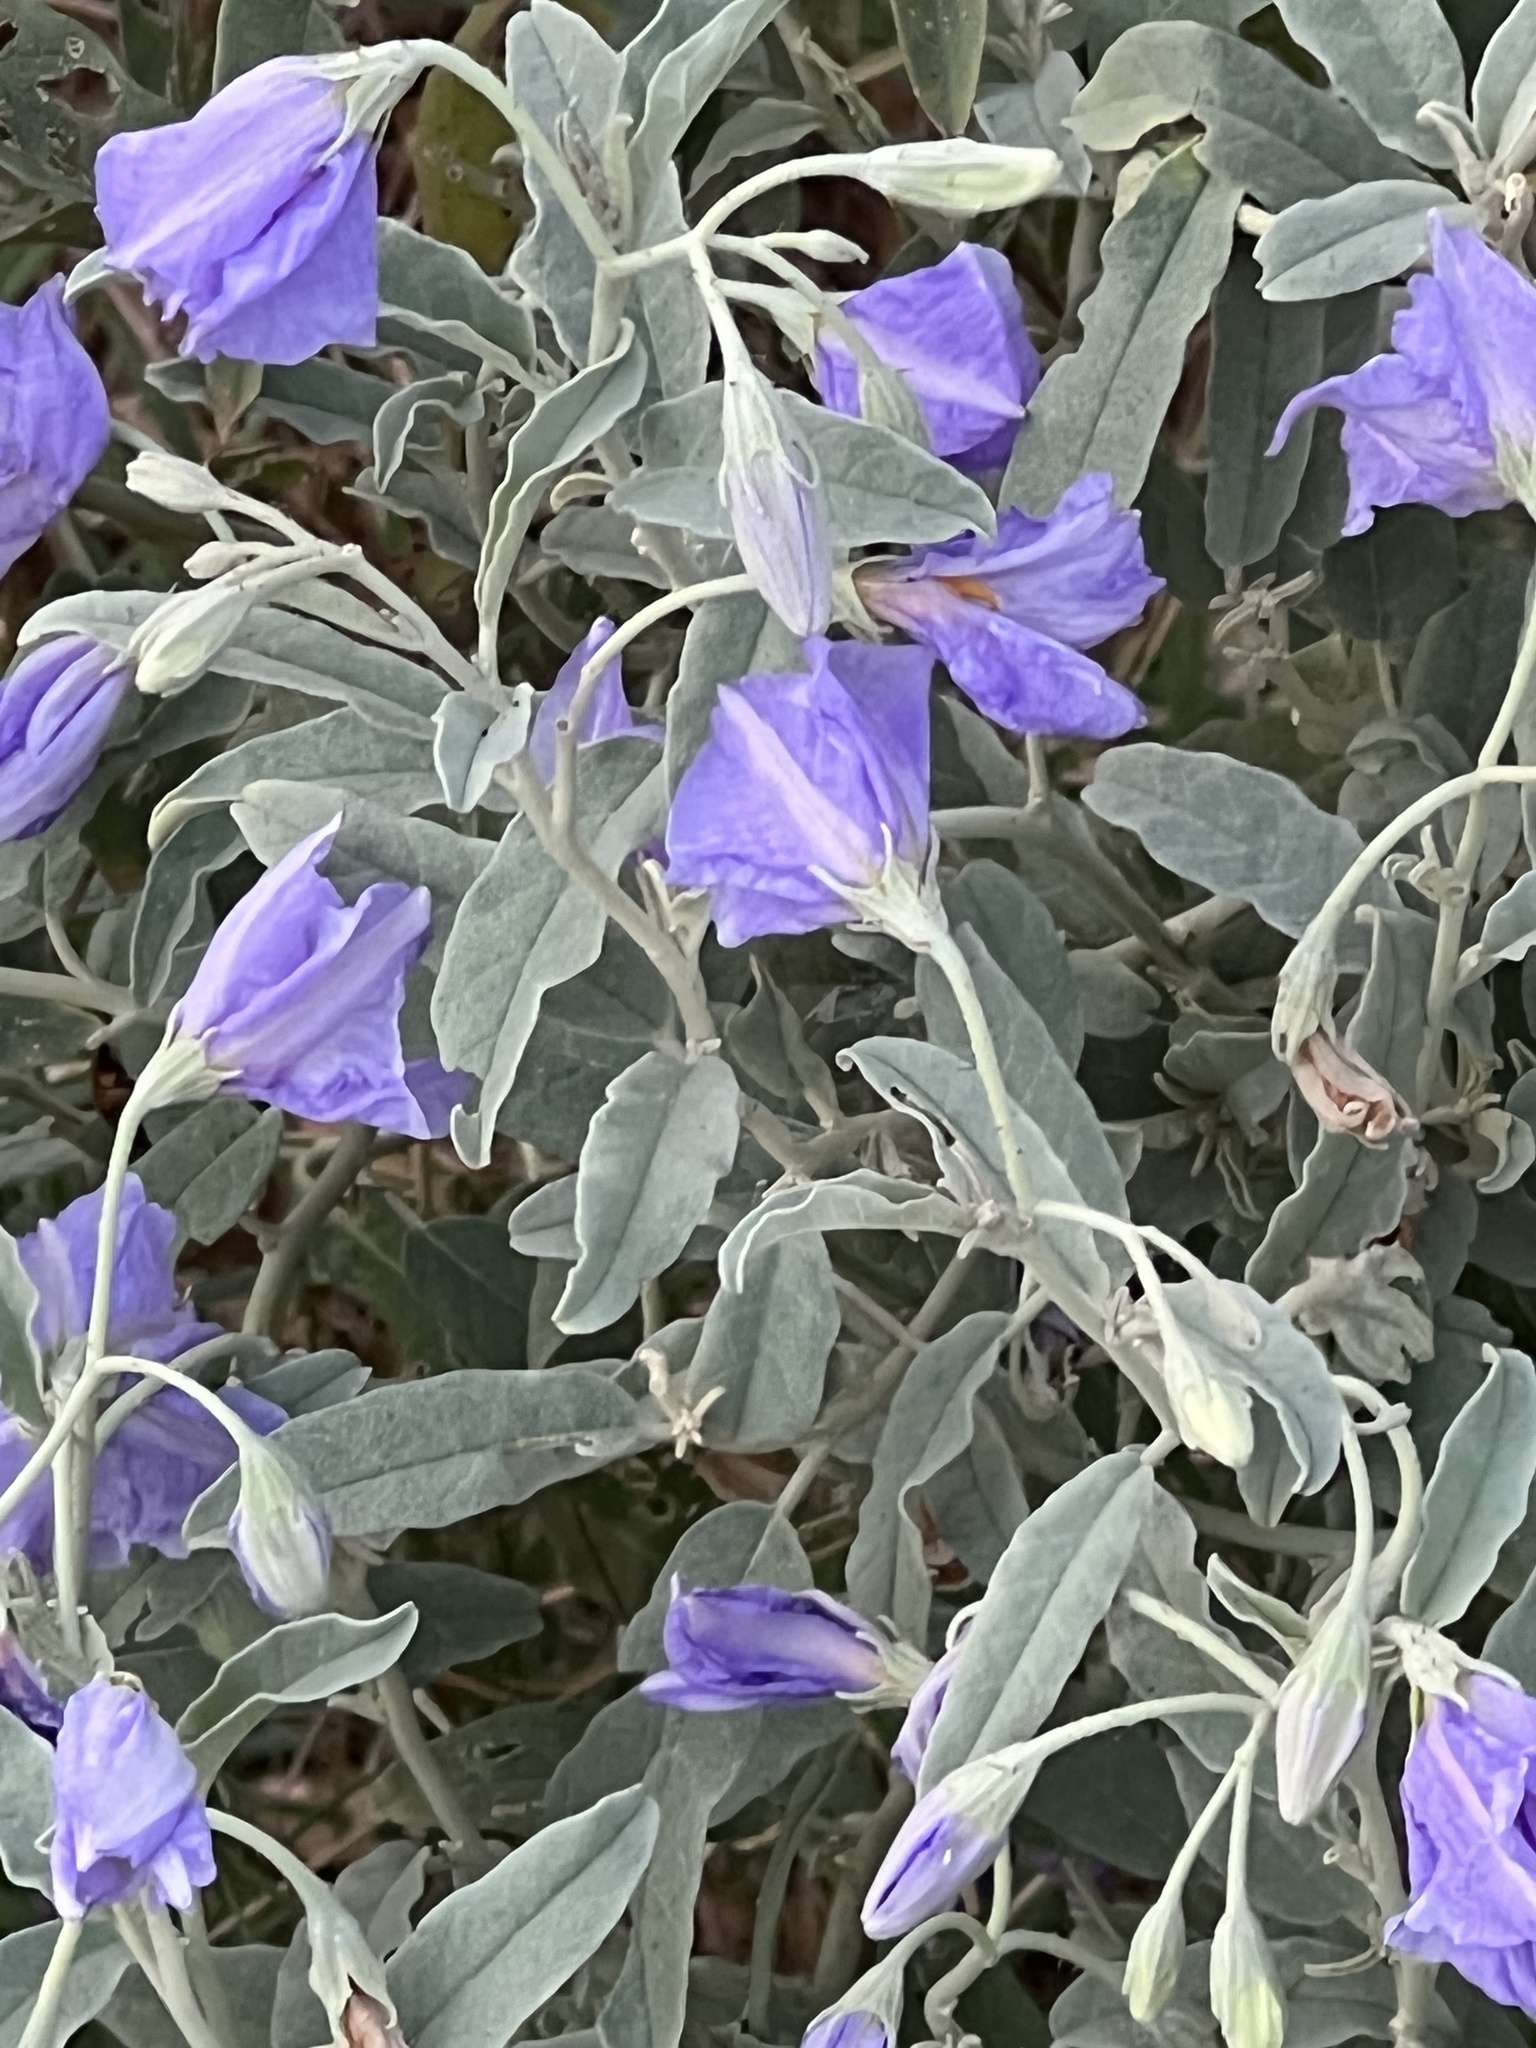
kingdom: Plantae
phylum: Tracheophyta
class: Magnoliopsida
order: Solanales
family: Solanaceae
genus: Solanum
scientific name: Solanum elaeagnifolium
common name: Silverleaf nightshade
